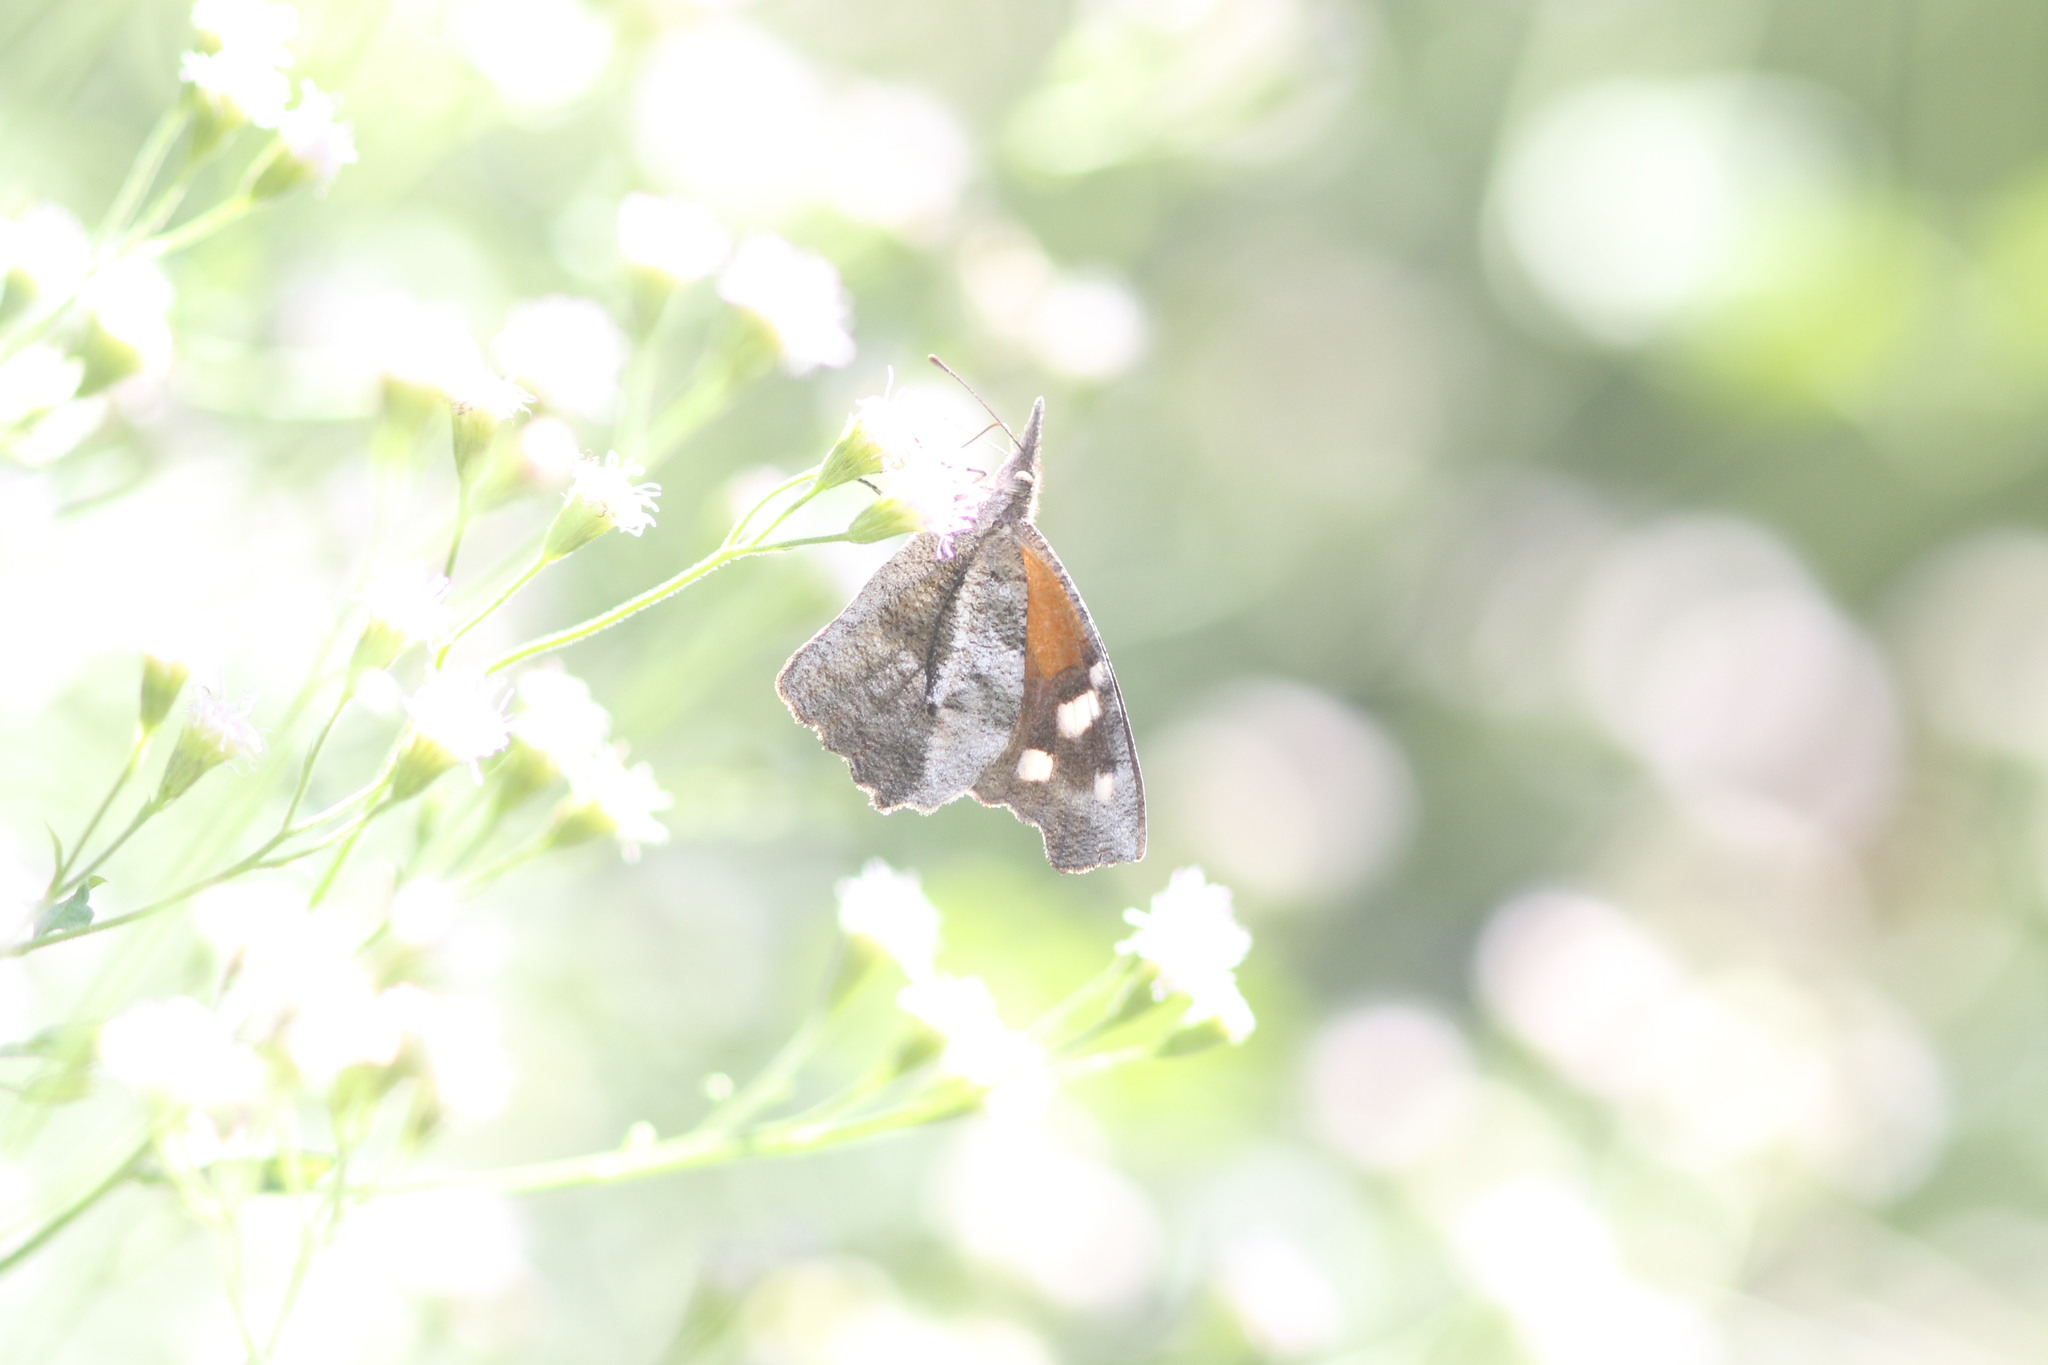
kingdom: Animalia
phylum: Arthropoda
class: Insecta
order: Lepidoptera
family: Nymphalidae
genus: Libytheana
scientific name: Libytheana carinenta
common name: American snout
